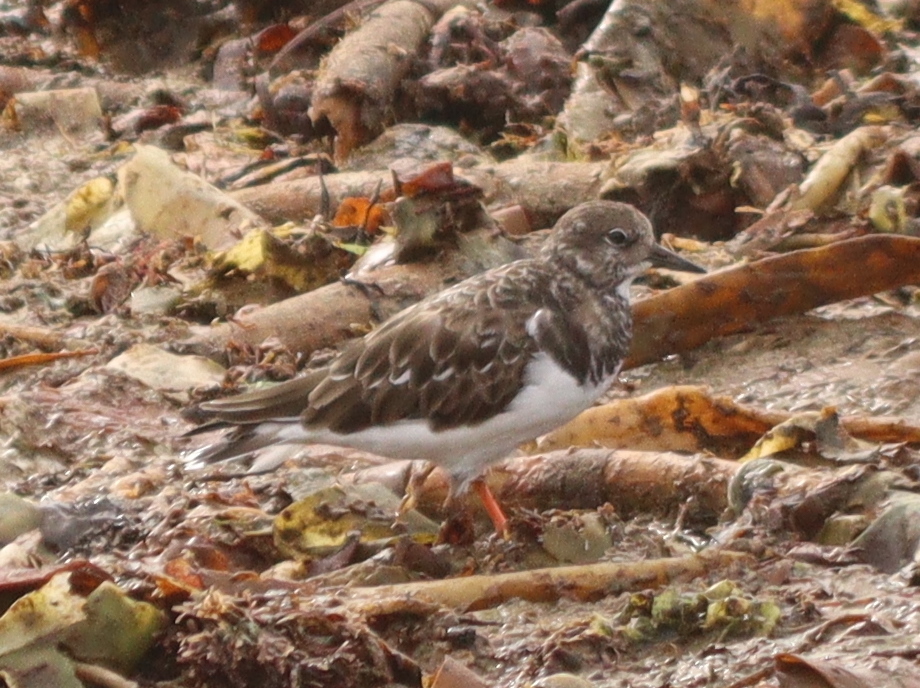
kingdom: Animalia
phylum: Chordata
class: Aves
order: Charadriiformes
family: Scolopacidae
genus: Arenaria
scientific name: Arenaria interpres
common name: Ruddy turnstone
